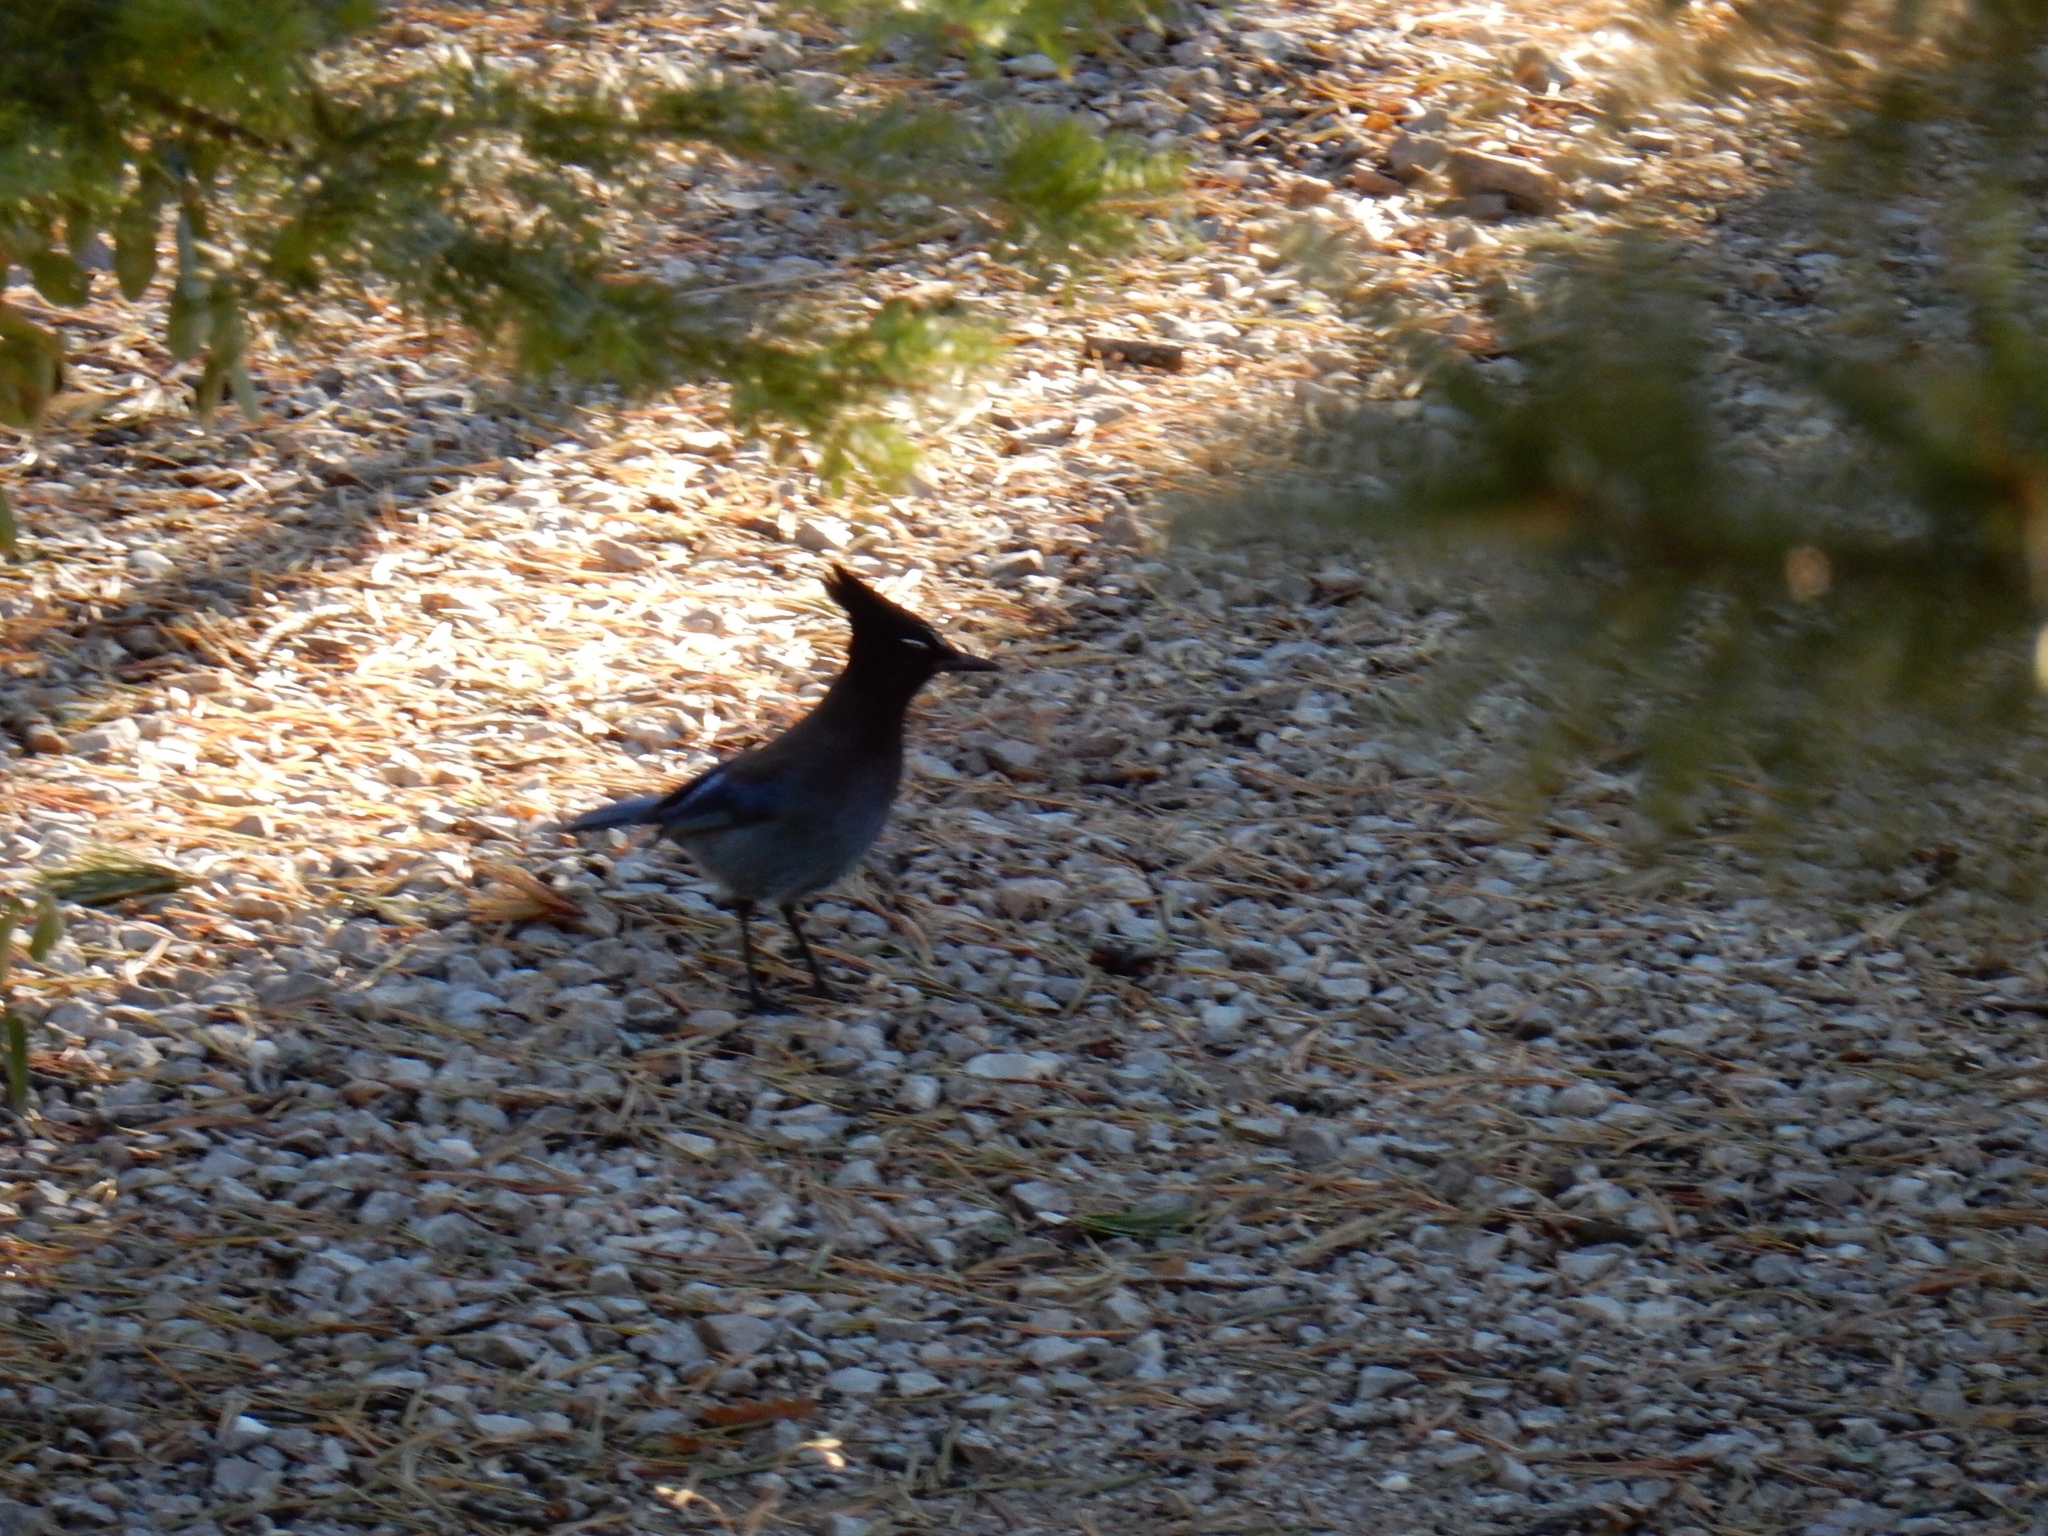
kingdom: Animalia
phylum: Chordata
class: Aves
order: Passeriformes
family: Corvidae
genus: Cyanocitta
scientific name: Cyanocitta stelleri
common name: Steller's jay
